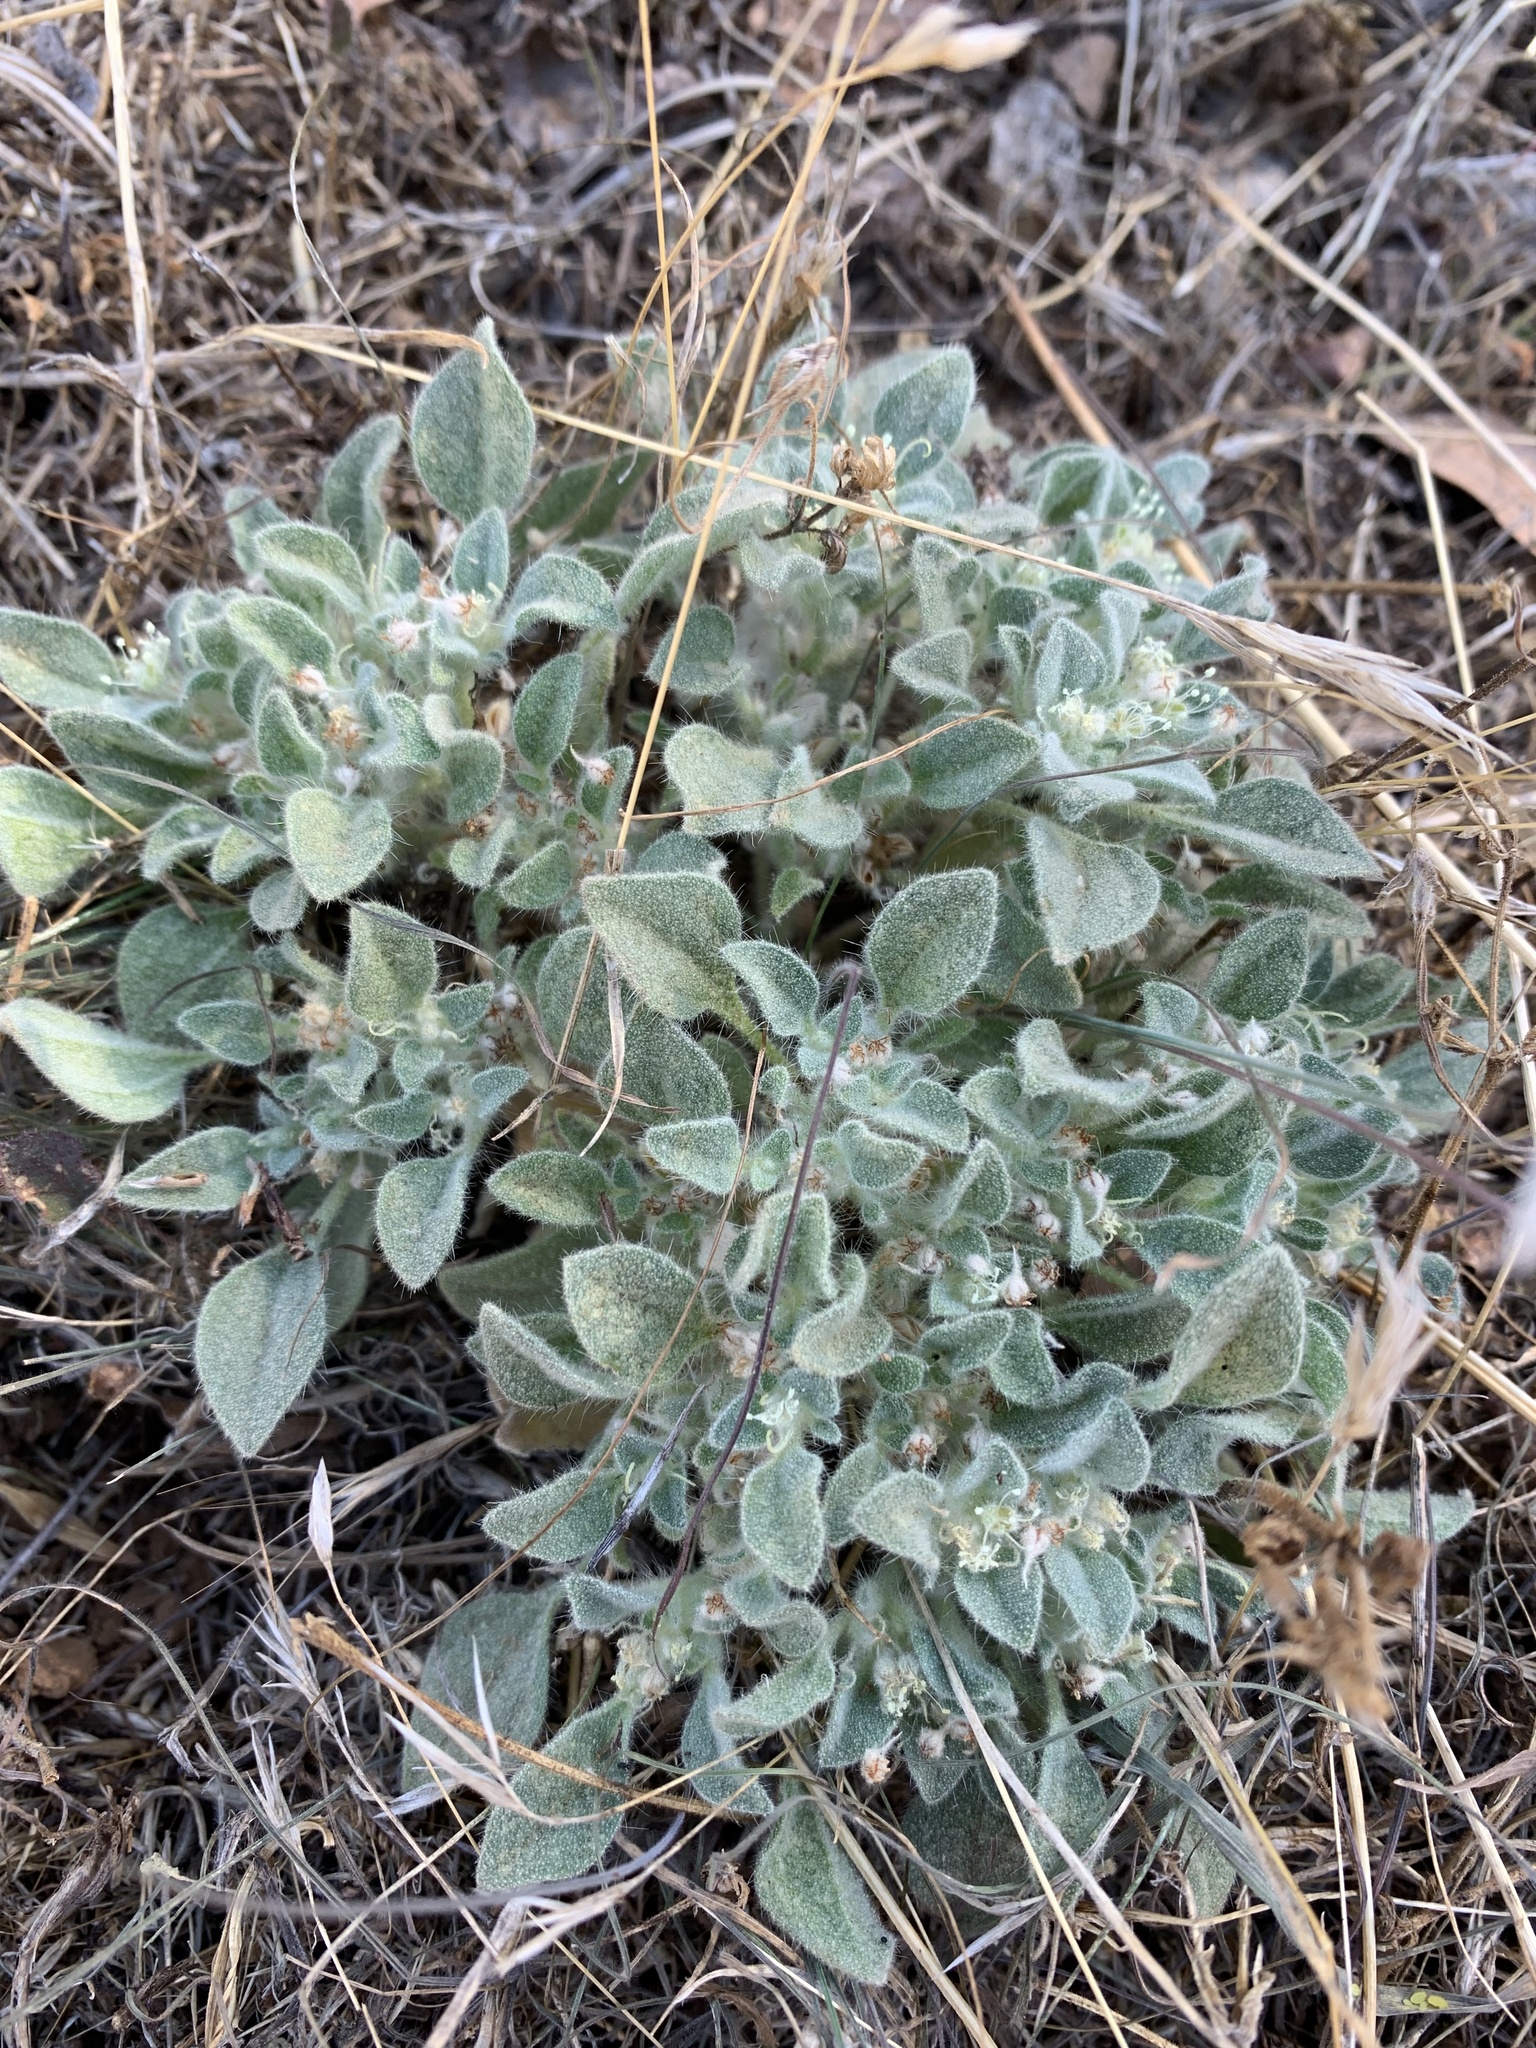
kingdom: Plantae
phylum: Tracheophyta
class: Magnoliopsida
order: Malpighiales
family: Euphorbiaceae
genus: Croton
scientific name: Croton setiger
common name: Dove weed
